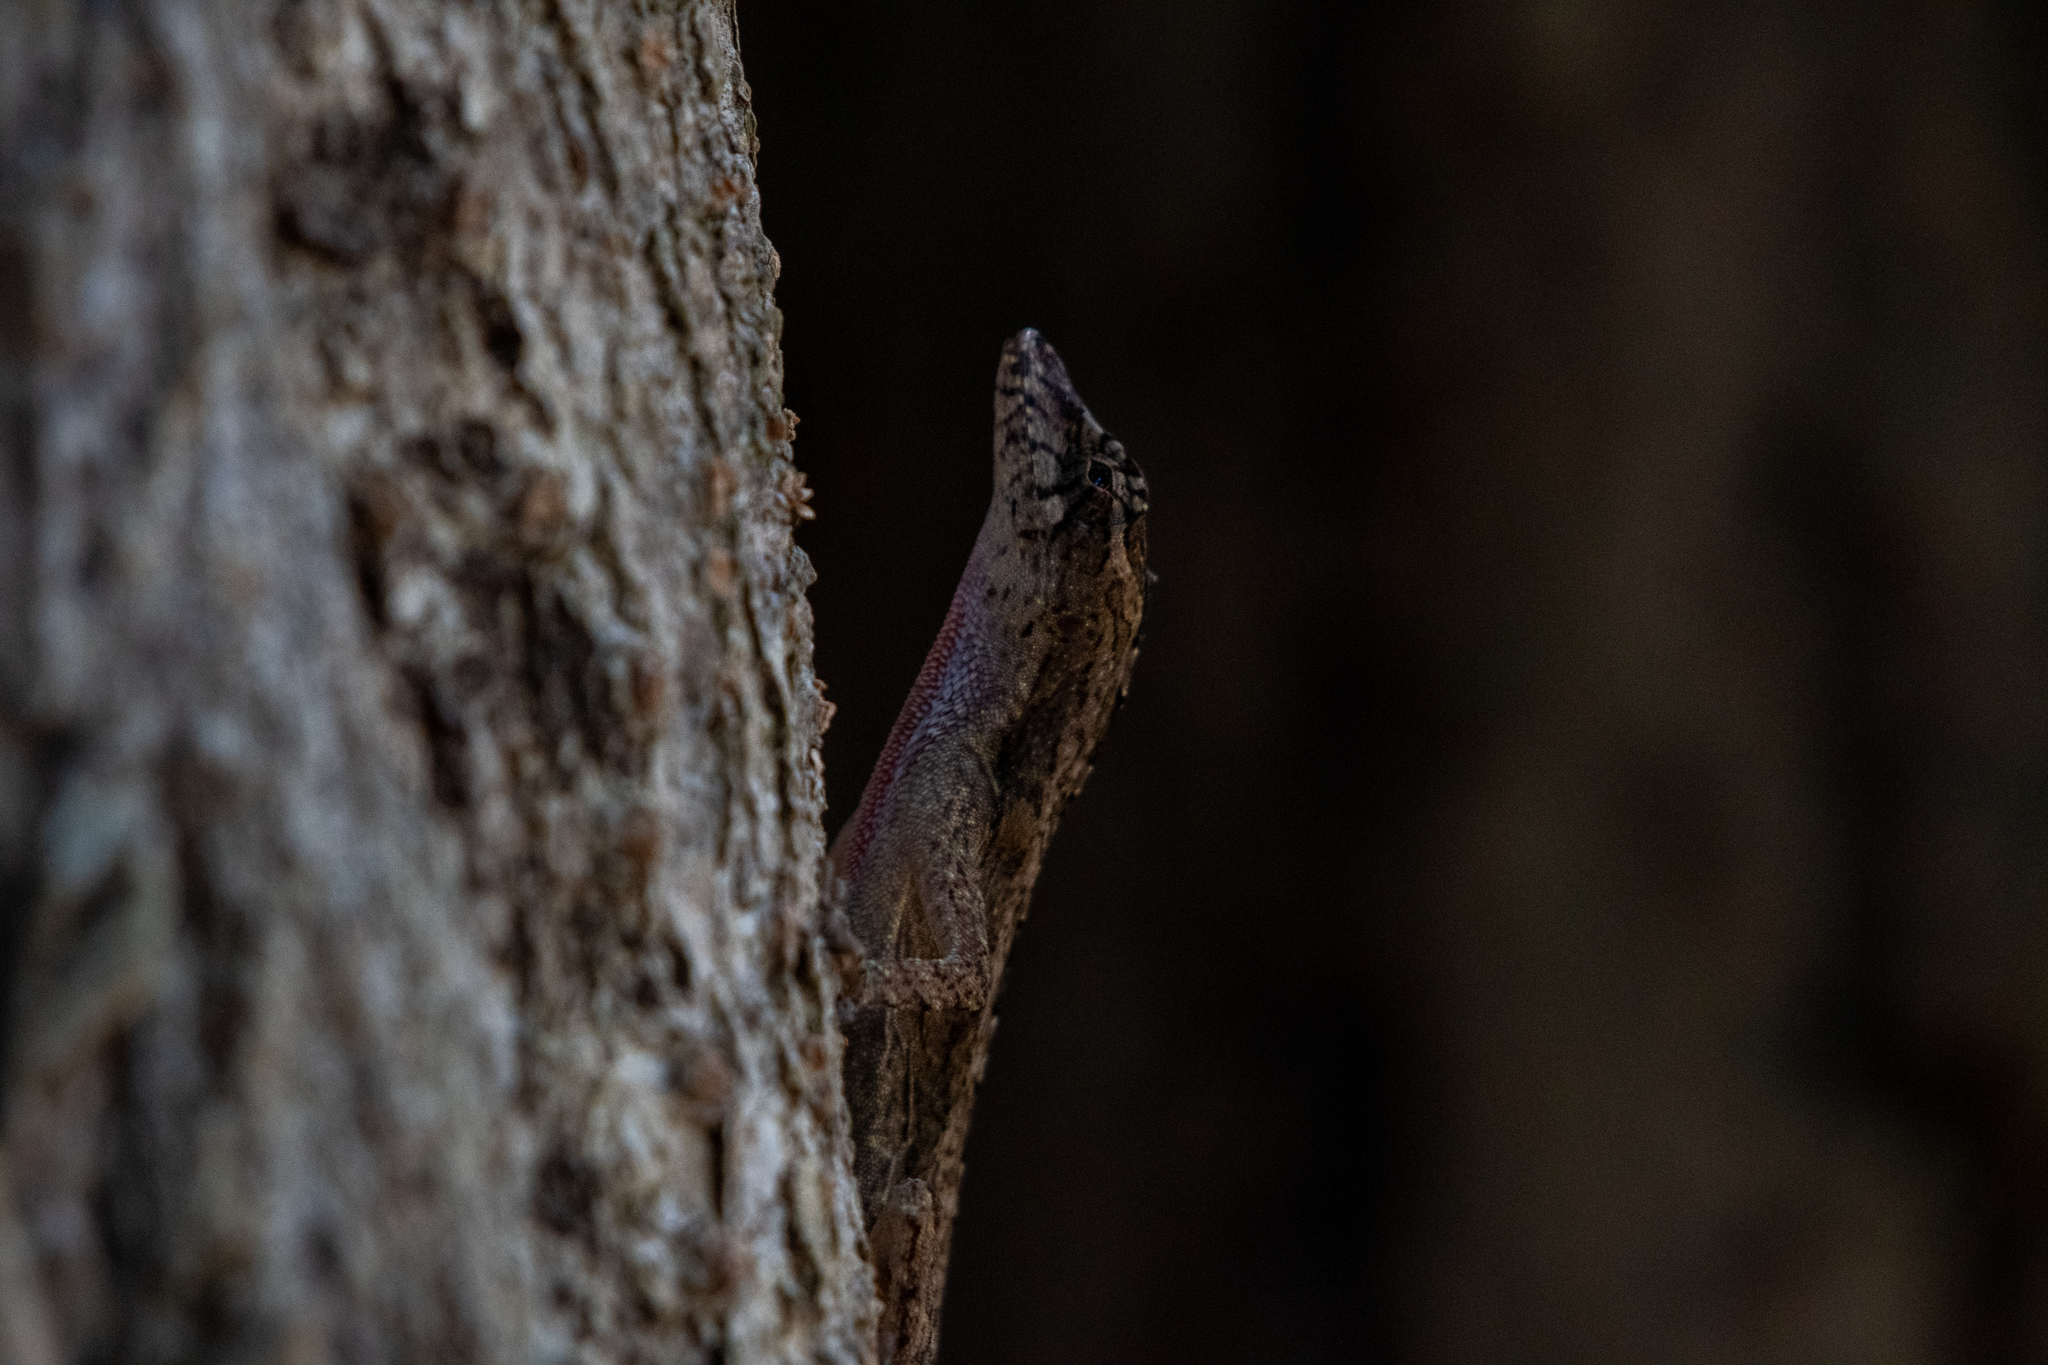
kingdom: Animalia
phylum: Chordata
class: Squamata
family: Dactyloidae
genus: Anolis
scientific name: Anolis bicaorum
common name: Bay islands anole
